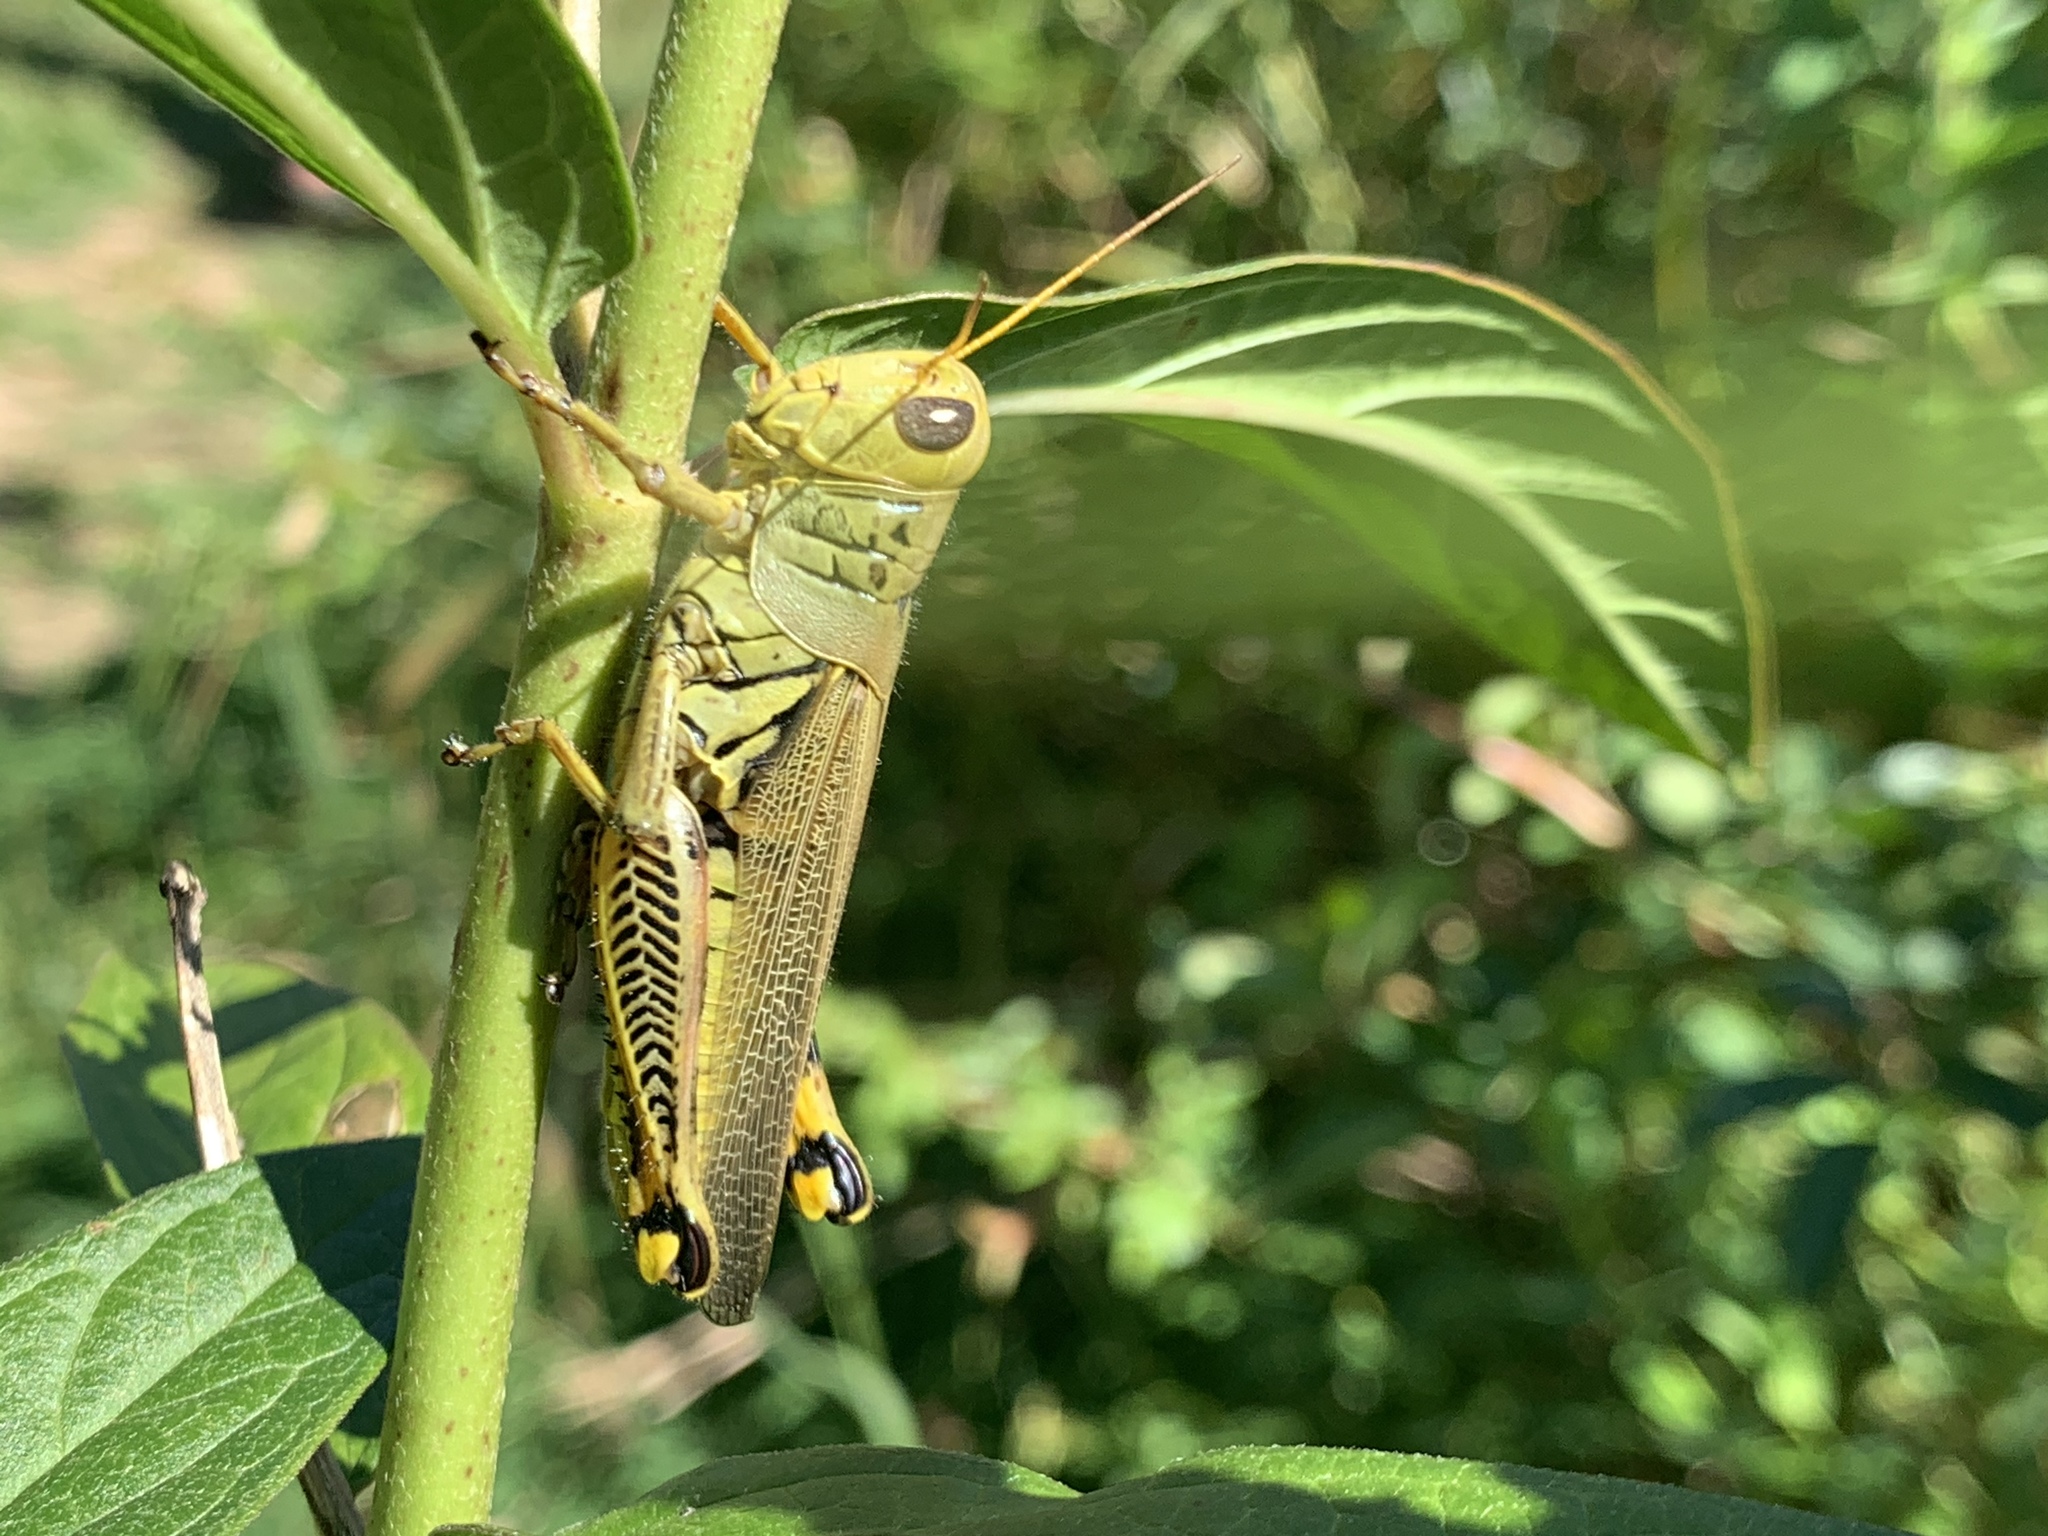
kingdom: Animalia
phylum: Arthropoda
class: Insecta
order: Orthoptera
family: Acrididae
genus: Melanoplus
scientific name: Melanoplus differentialis
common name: Differential grasshopper
